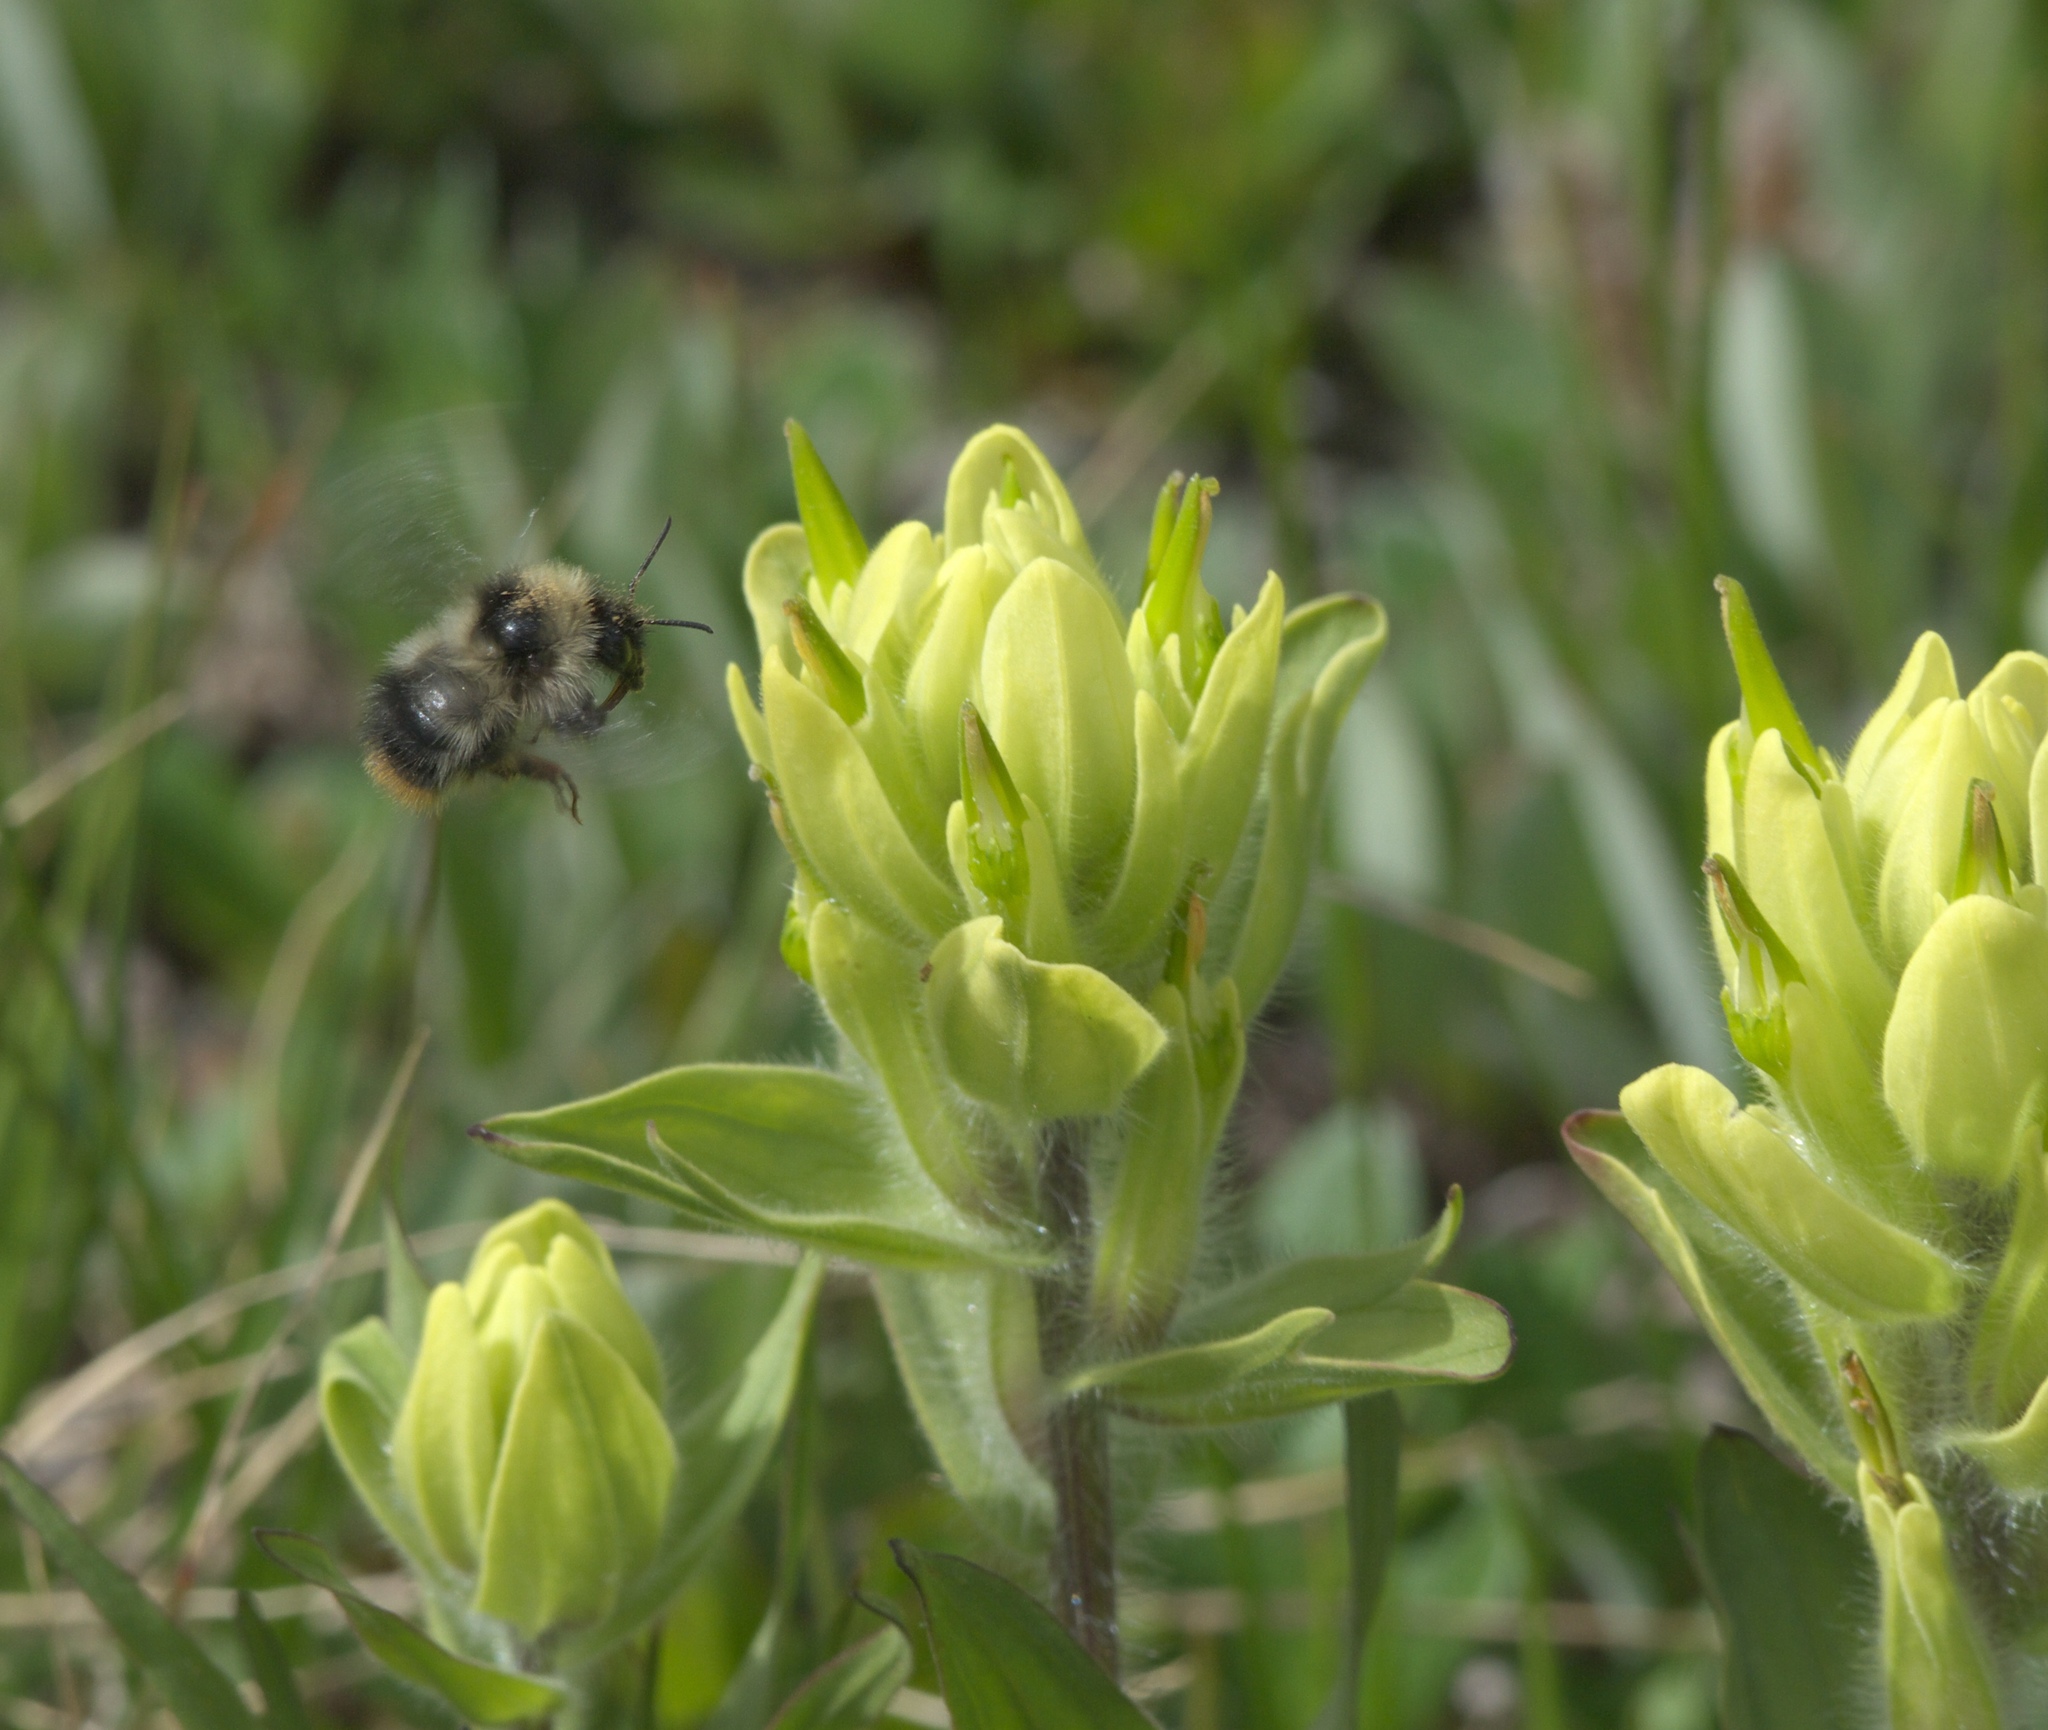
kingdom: Plantae
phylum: Tracheophyta
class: Magnoliopsida
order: Lamiales
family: Orobanchaceae
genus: Castilleja
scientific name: Castilleja occidentalis
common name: Western paintbrush
